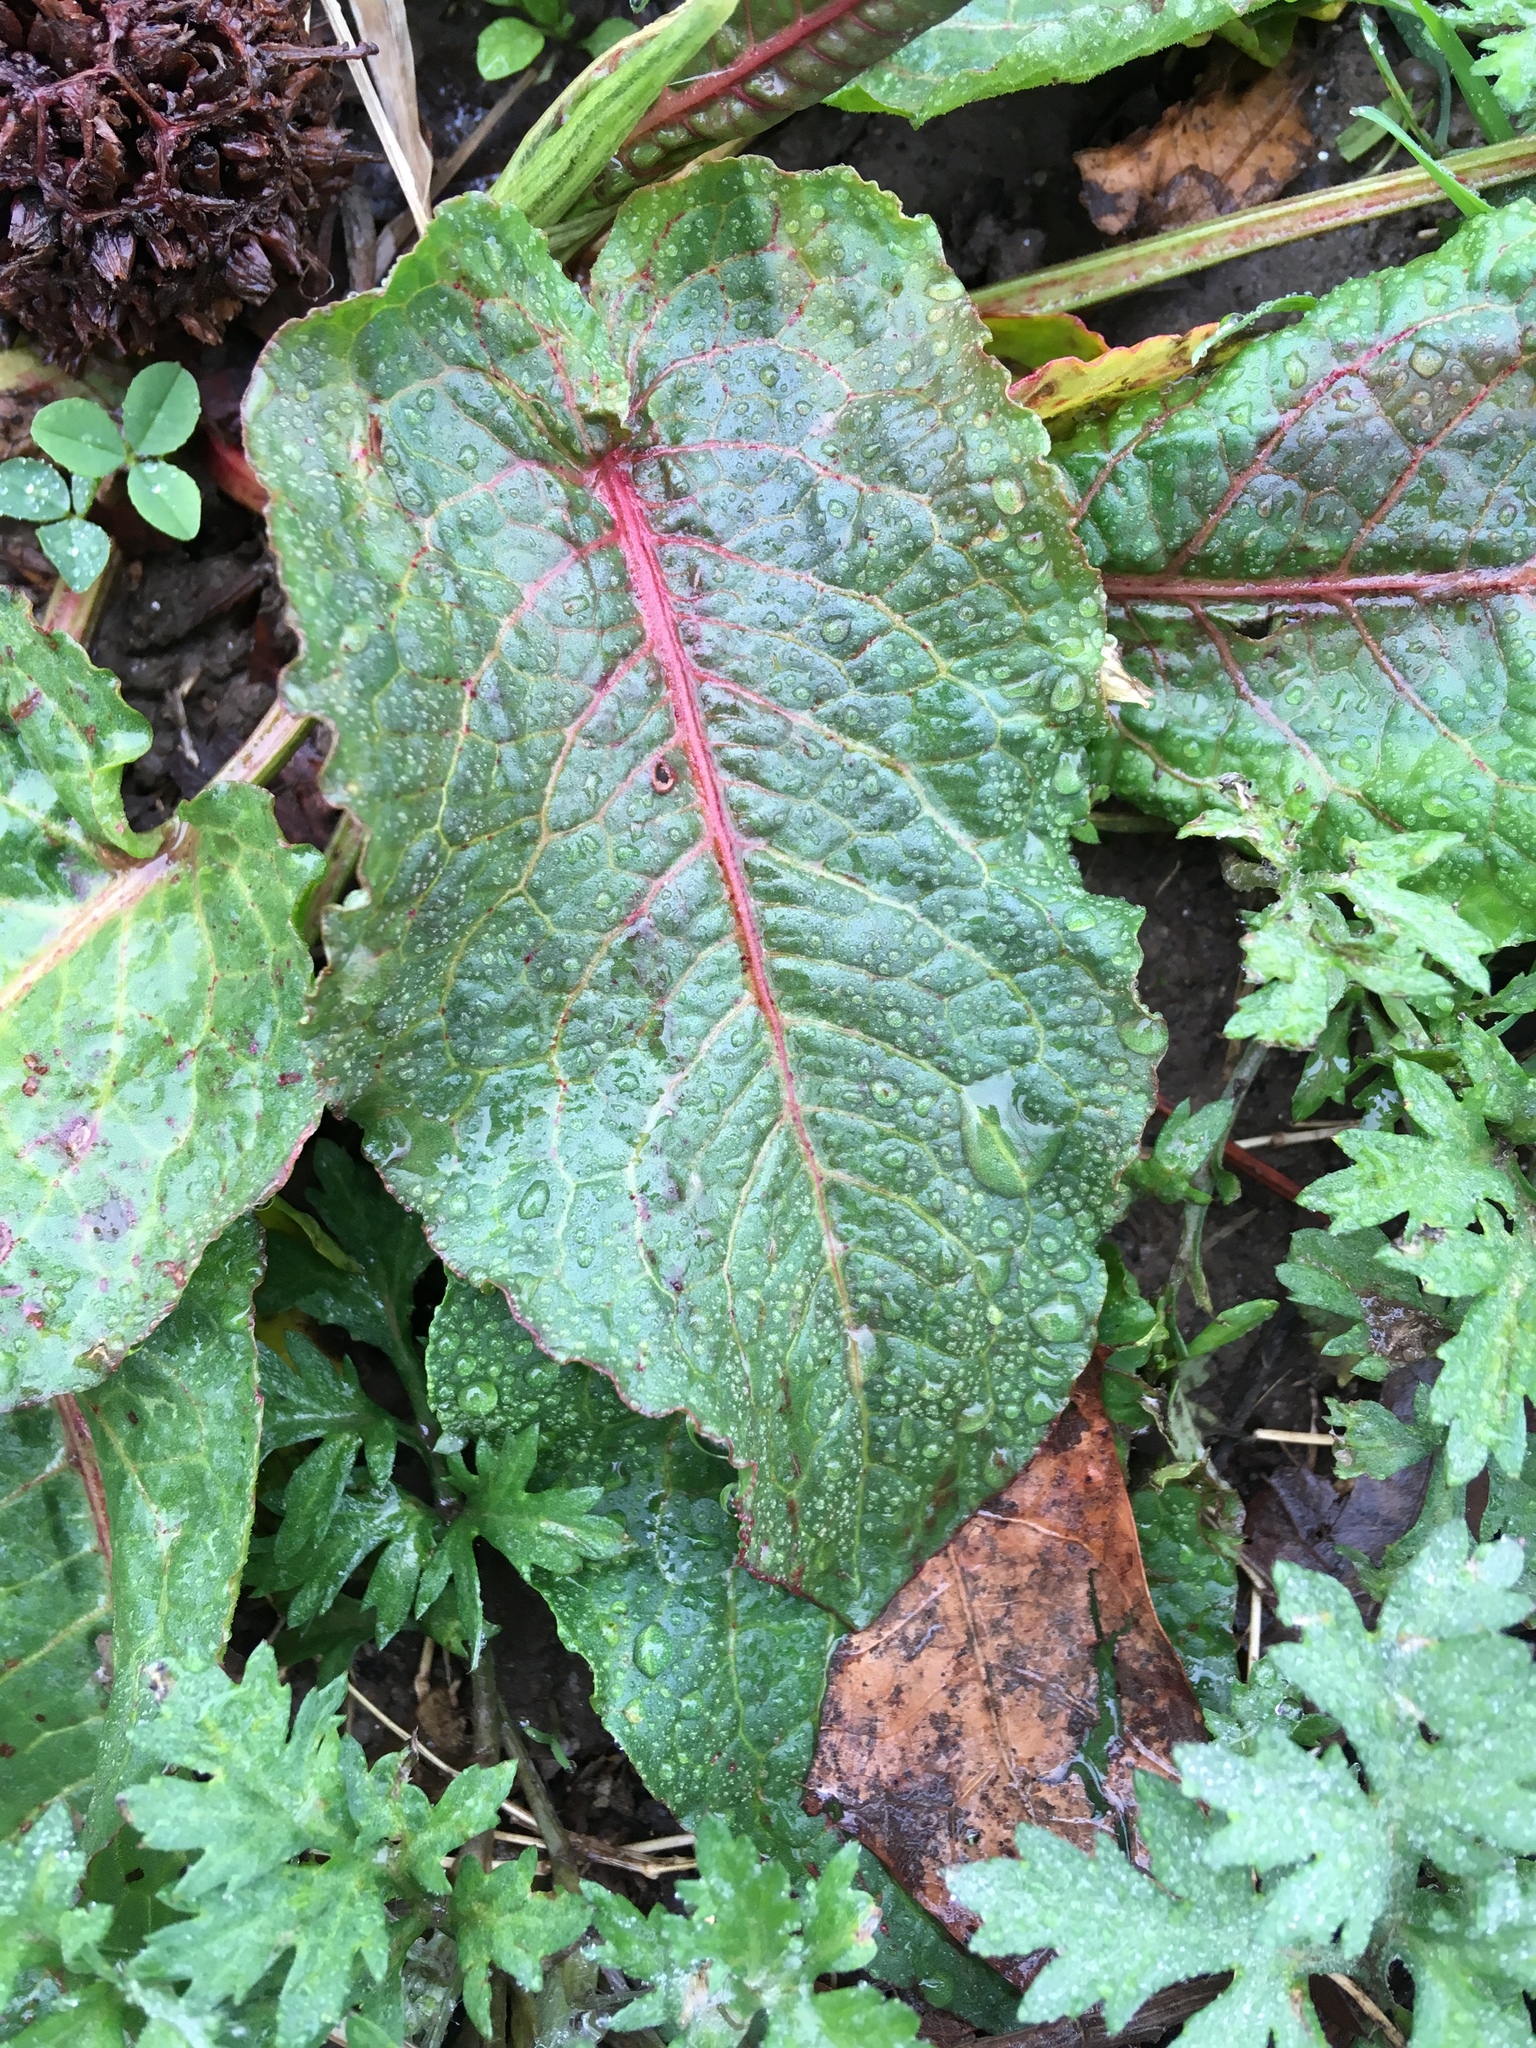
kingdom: Plantae
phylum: Tracheophyta
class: Magnoliopsida
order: Caryophyllales
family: Polygonaceae
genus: Rumex
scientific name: Rumex obtusifolius
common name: Bitter dock
